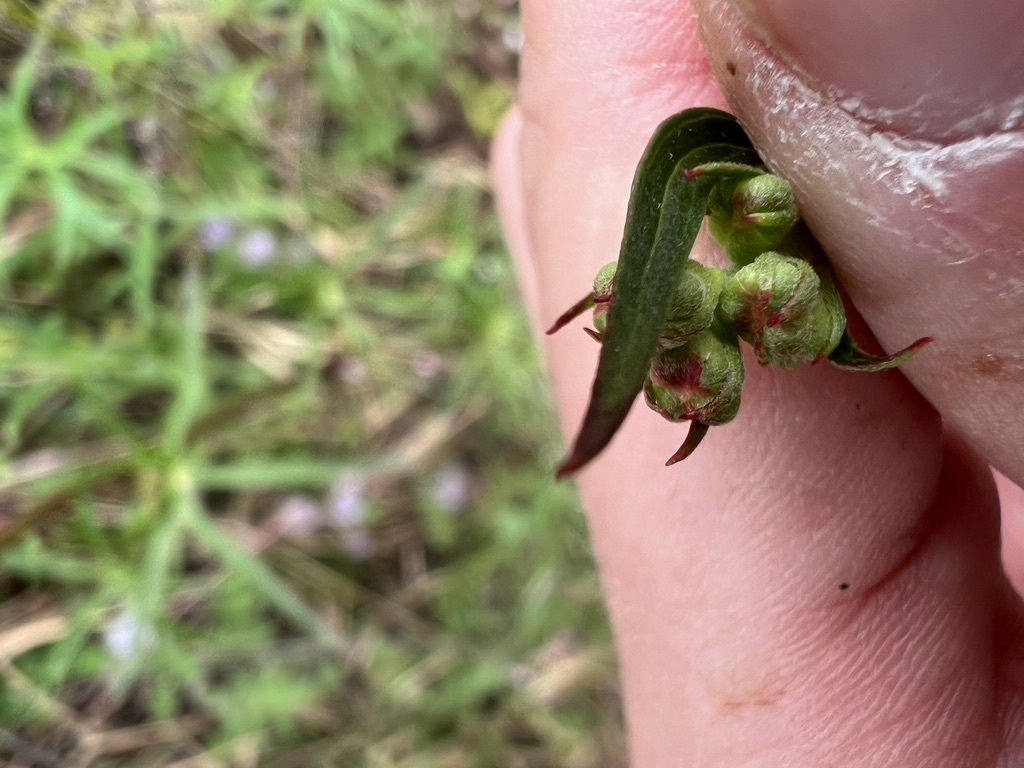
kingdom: Plantae
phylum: Tracheophyta
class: Magnoliopsida
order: Ranunculales
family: Ranunculaceae
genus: Delphinium
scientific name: Delphinium cardinale
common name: Scarlet larkspur
